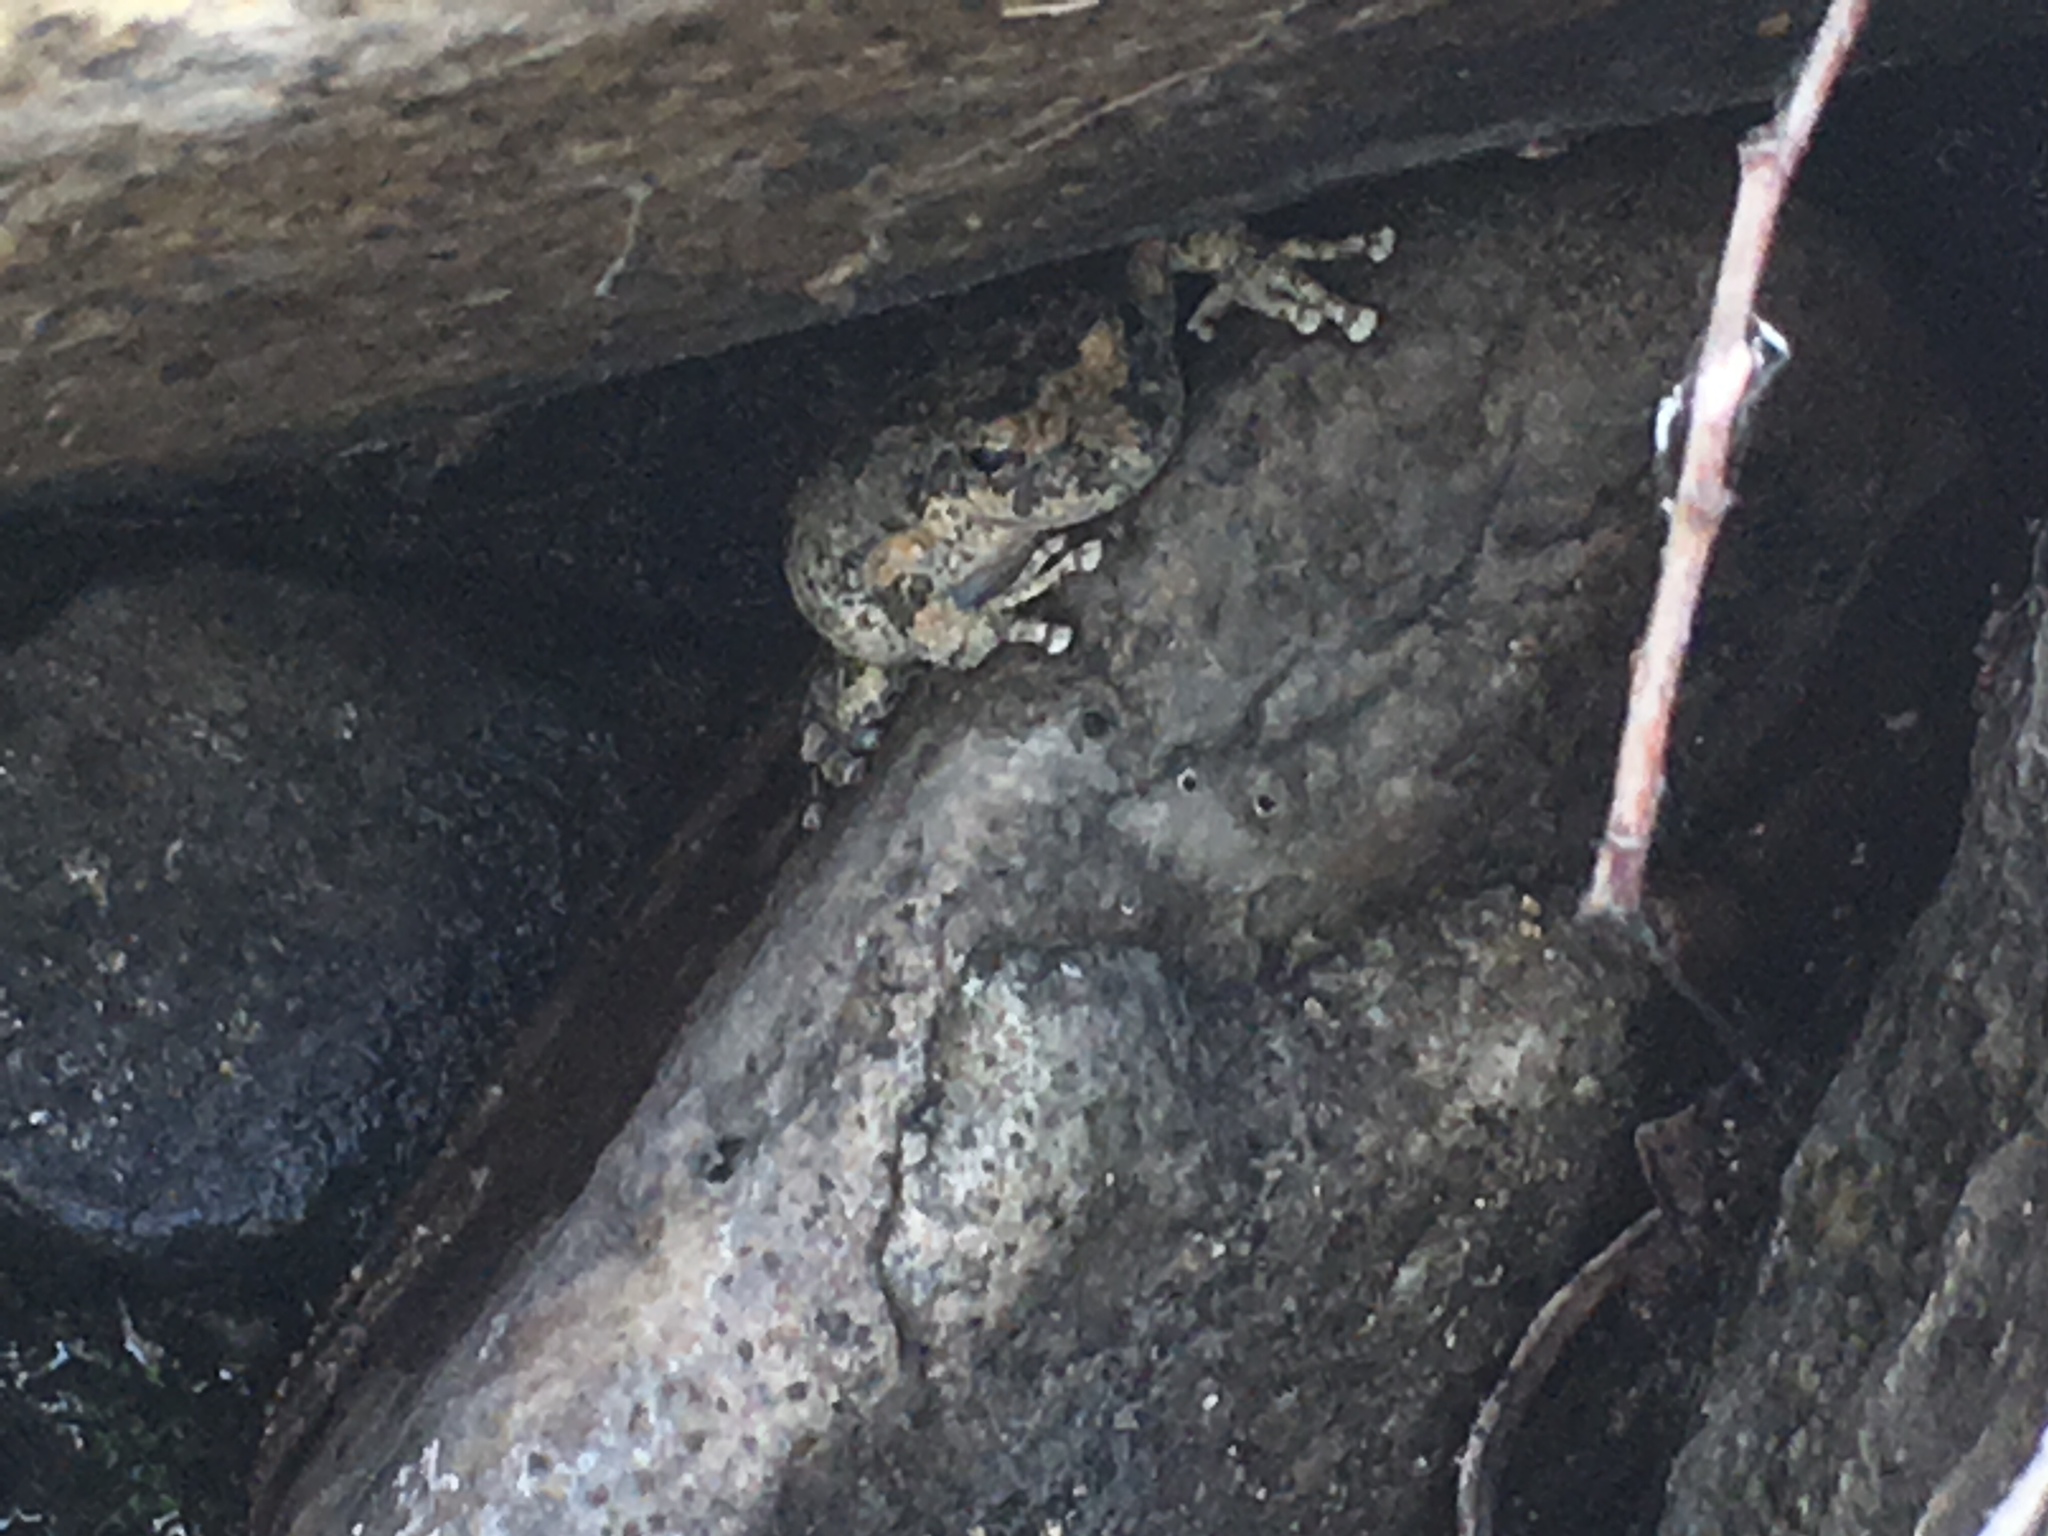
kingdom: Animalia
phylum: Chordata
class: Amphibia
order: Anura
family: Hylidae
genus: Pseudacris
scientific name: Pseudacris cadaverina
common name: California chorus frog
